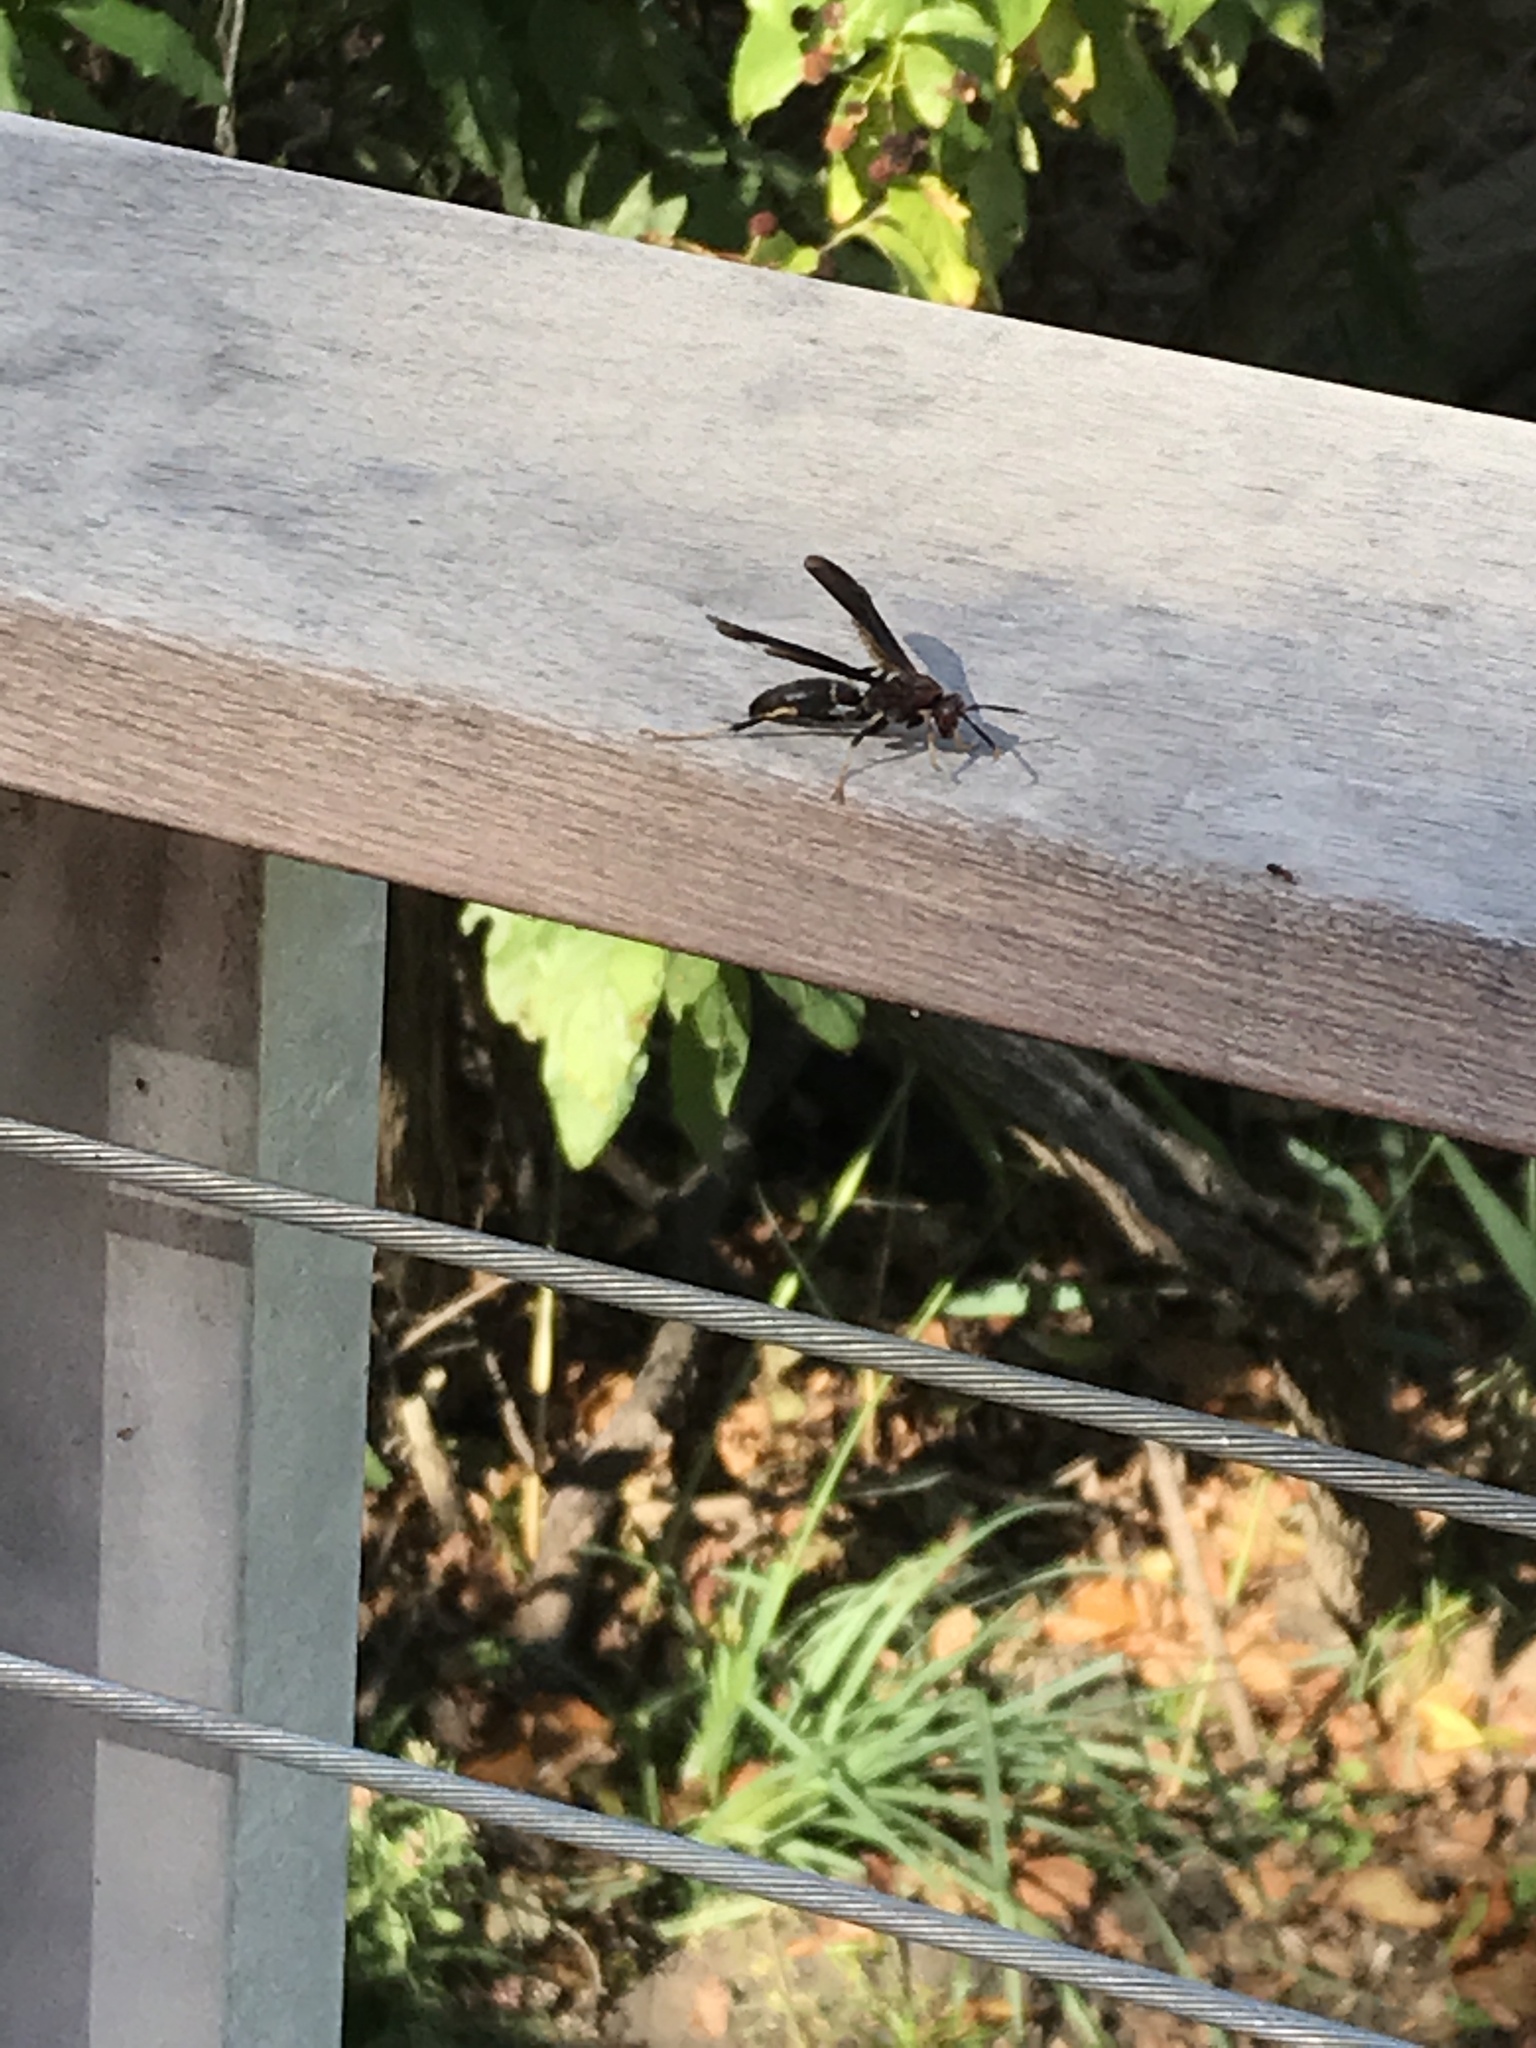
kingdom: Animalia
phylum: Arthropoda
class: Insecta
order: Hymenoptera
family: Eumenidae
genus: Polistes
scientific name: Polistes annularis
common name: Ringed paper wasp
